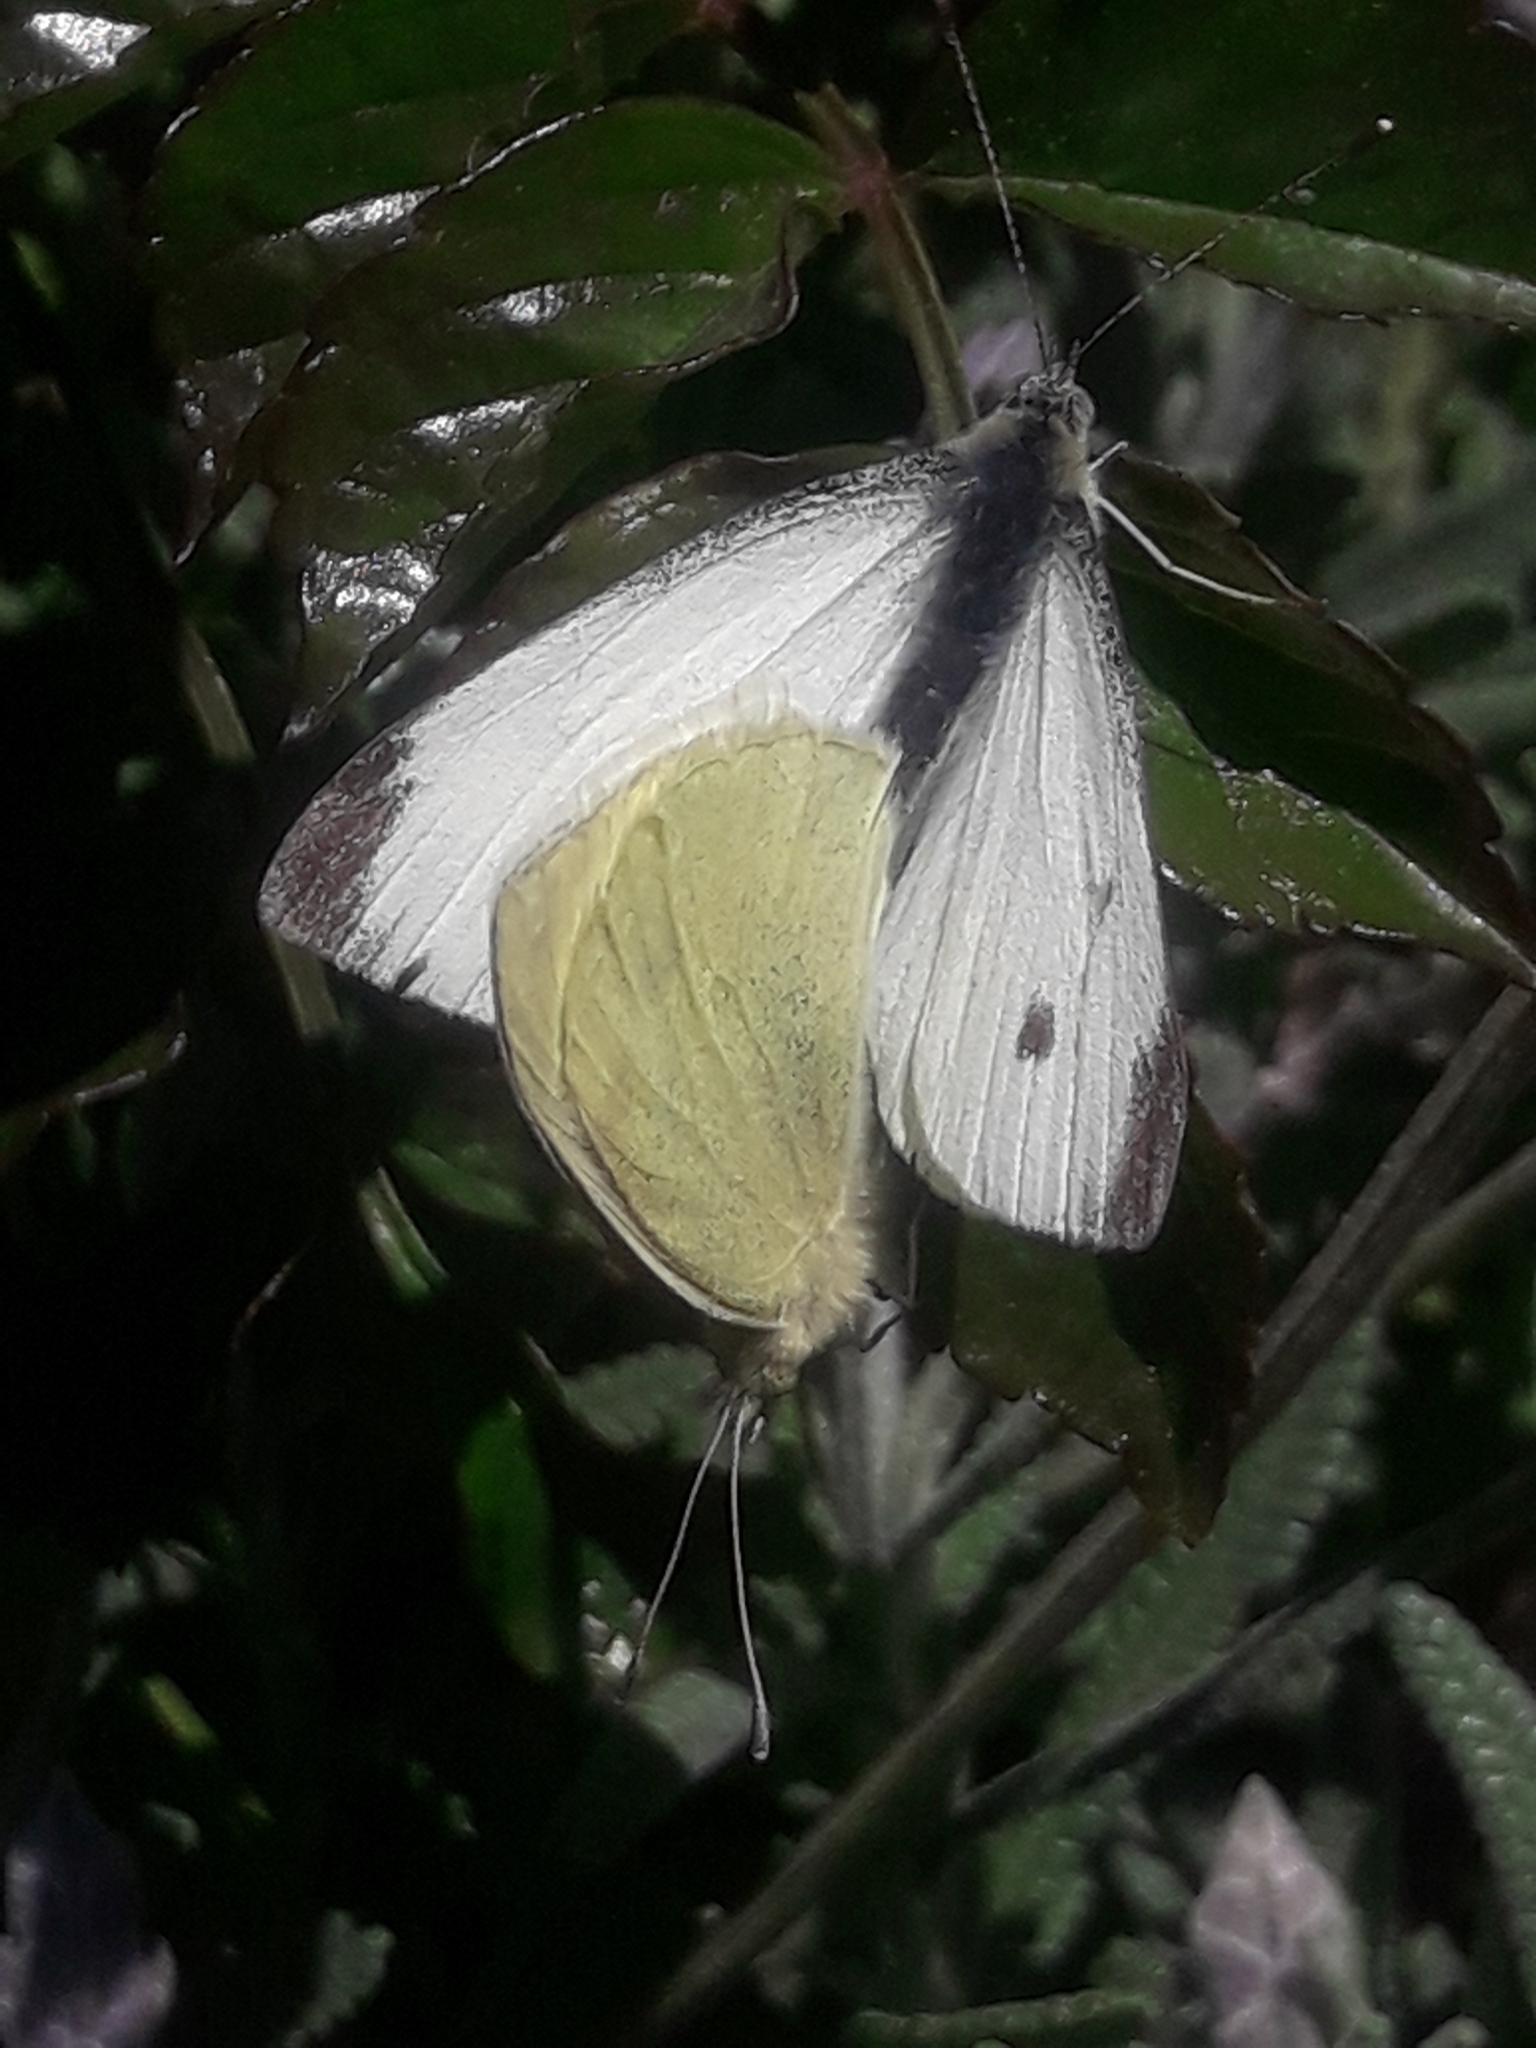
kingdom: Animalia
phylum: Arthropoda
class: Insecta
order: Lepidoptera
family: Pieridae
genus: Pieris
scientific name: Pieris rapae
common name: Small white
